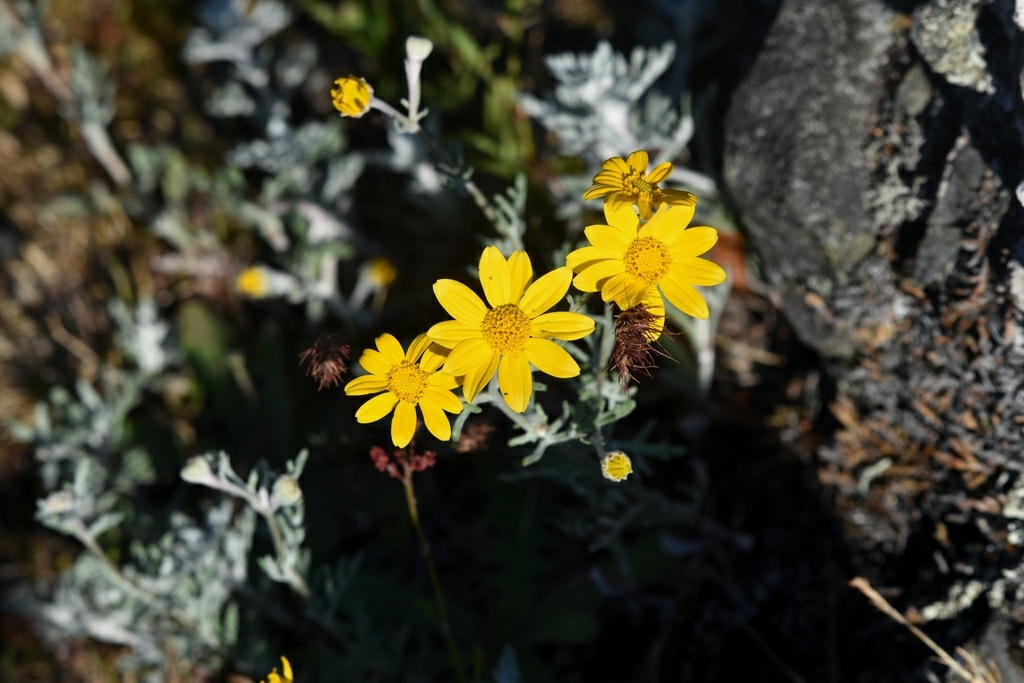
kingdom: Plantae
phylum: Tracheophyta
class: Magnoliopsida
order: Asterales
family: Asteraceae
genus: Eriophyllum
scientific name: Eriophyllum lanatum
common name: Common woolly-sunflower
